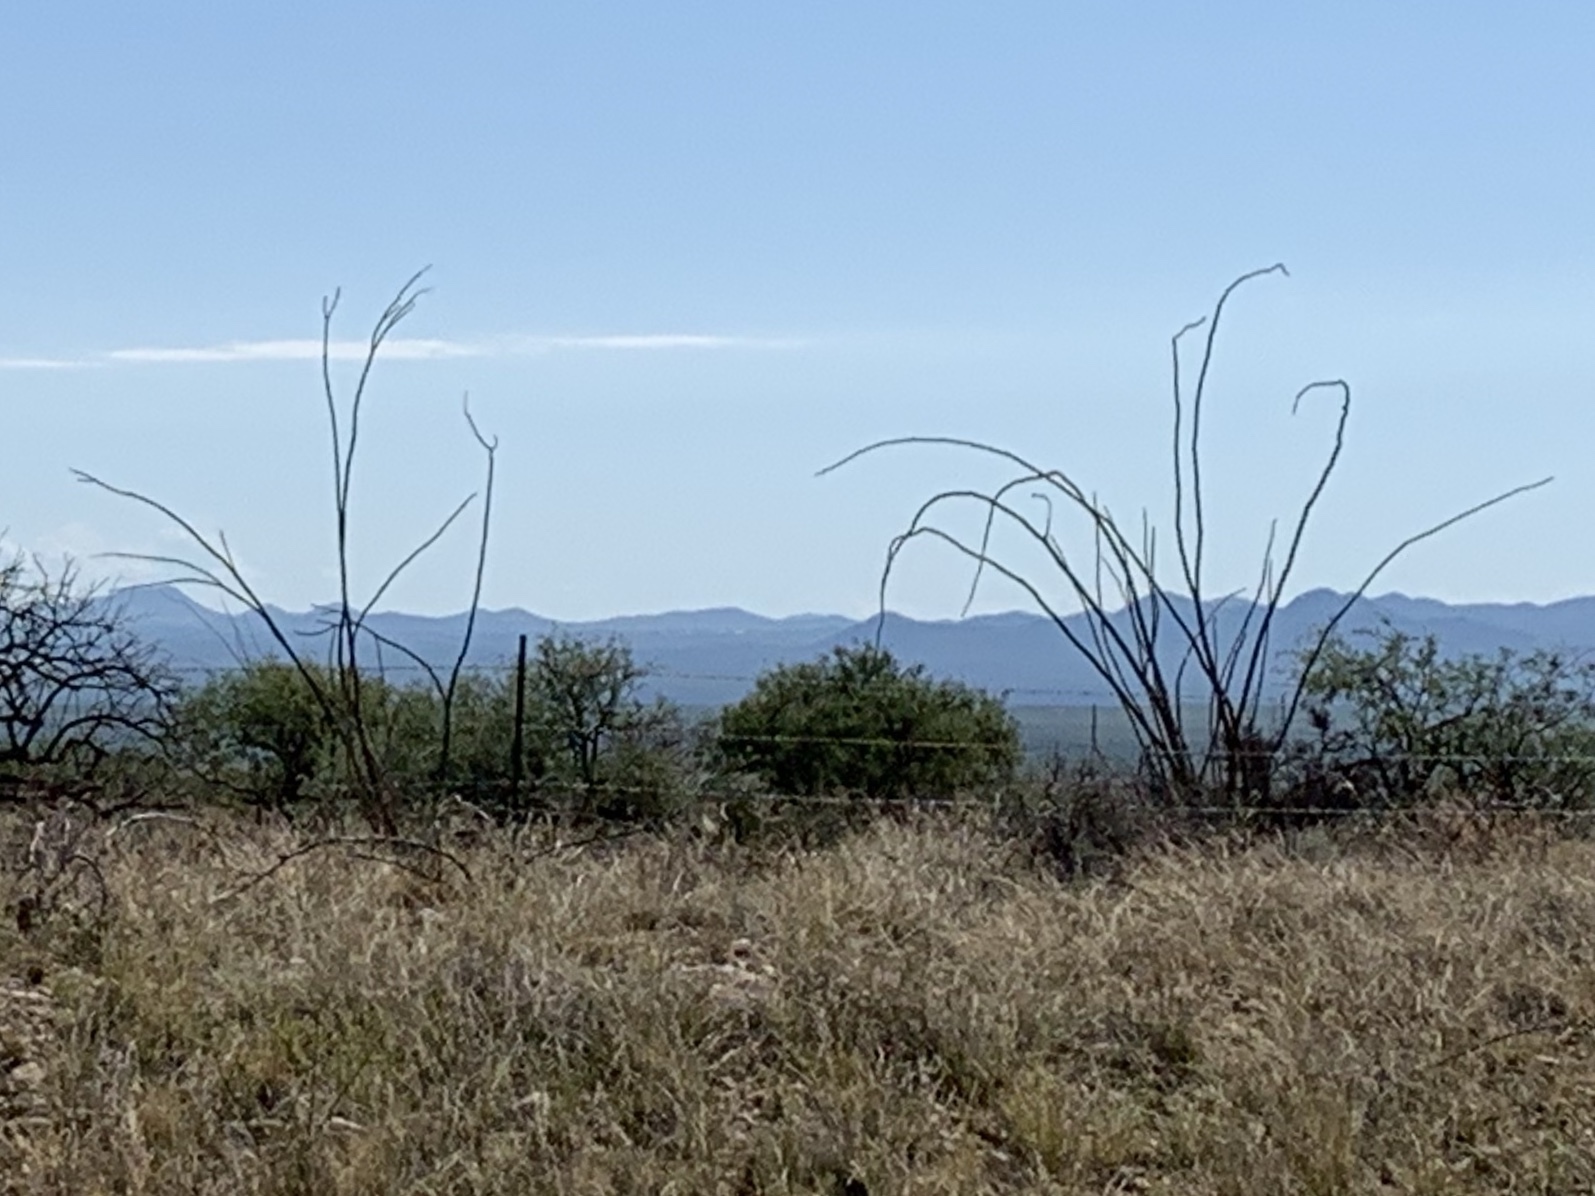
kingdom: Plantae
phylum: Tracheophyta
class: Magnoliopsida
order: Ericales
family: Fouquieriaceae
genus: Fouquieria
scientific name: Fouquieria splendens
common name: Vine-cactus
